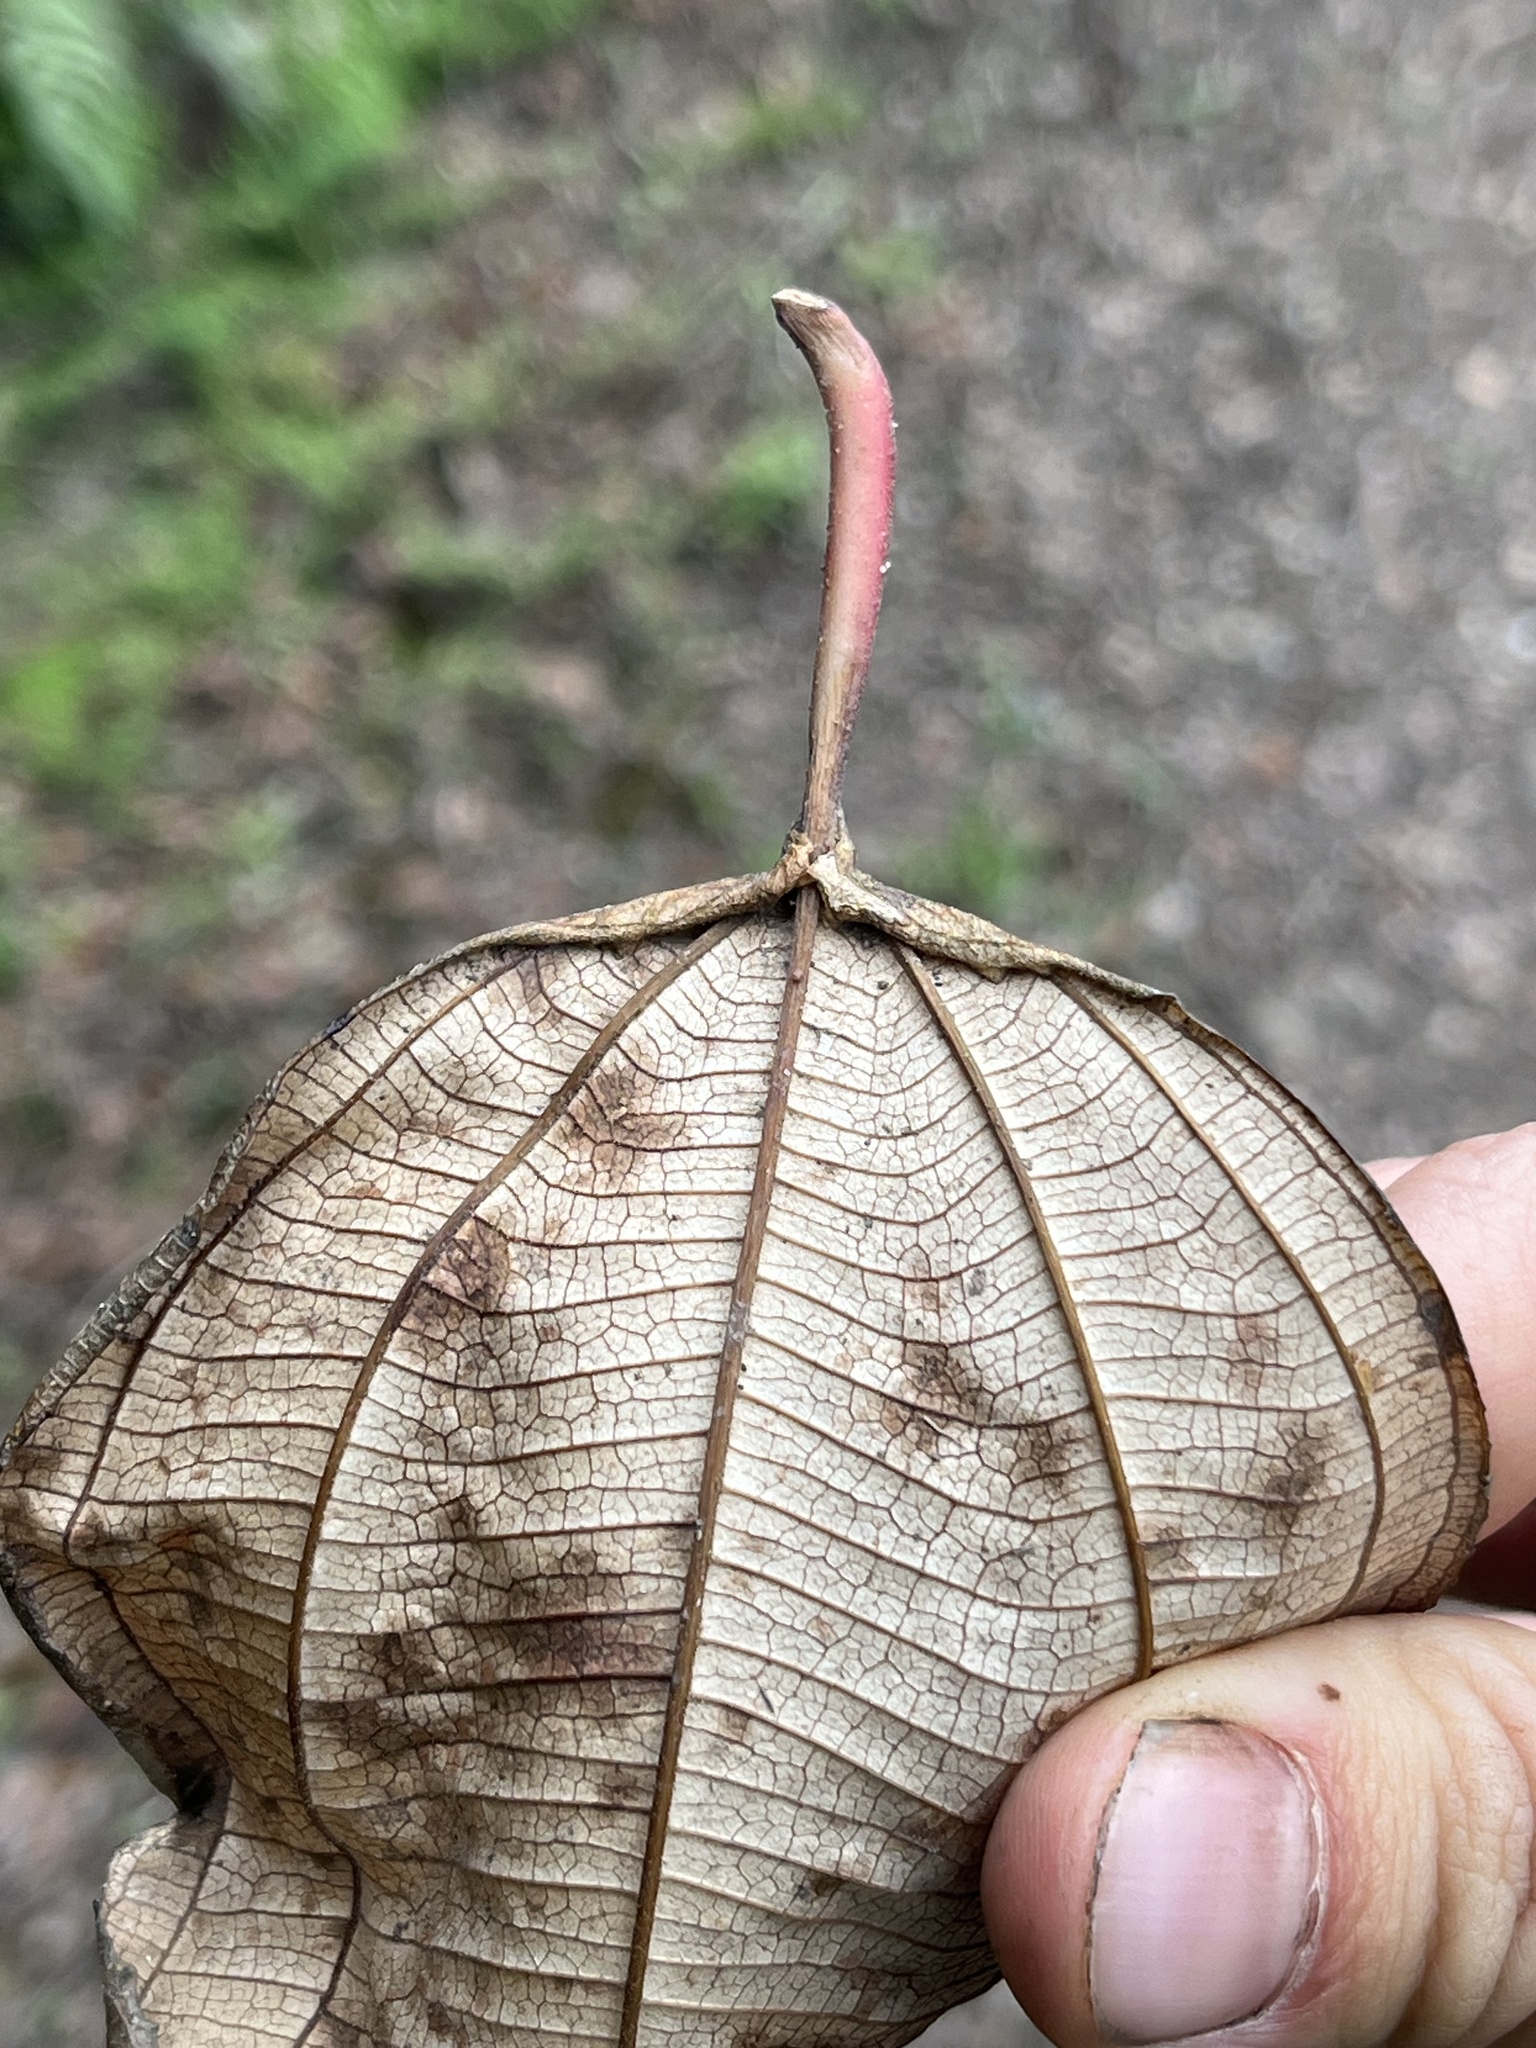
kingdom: Plantae
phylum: Tracheophyta
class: Magnoliopsida
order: Myrtales
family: Melastomataceae
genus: Axinaea
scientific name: Axinaea macrophylla
